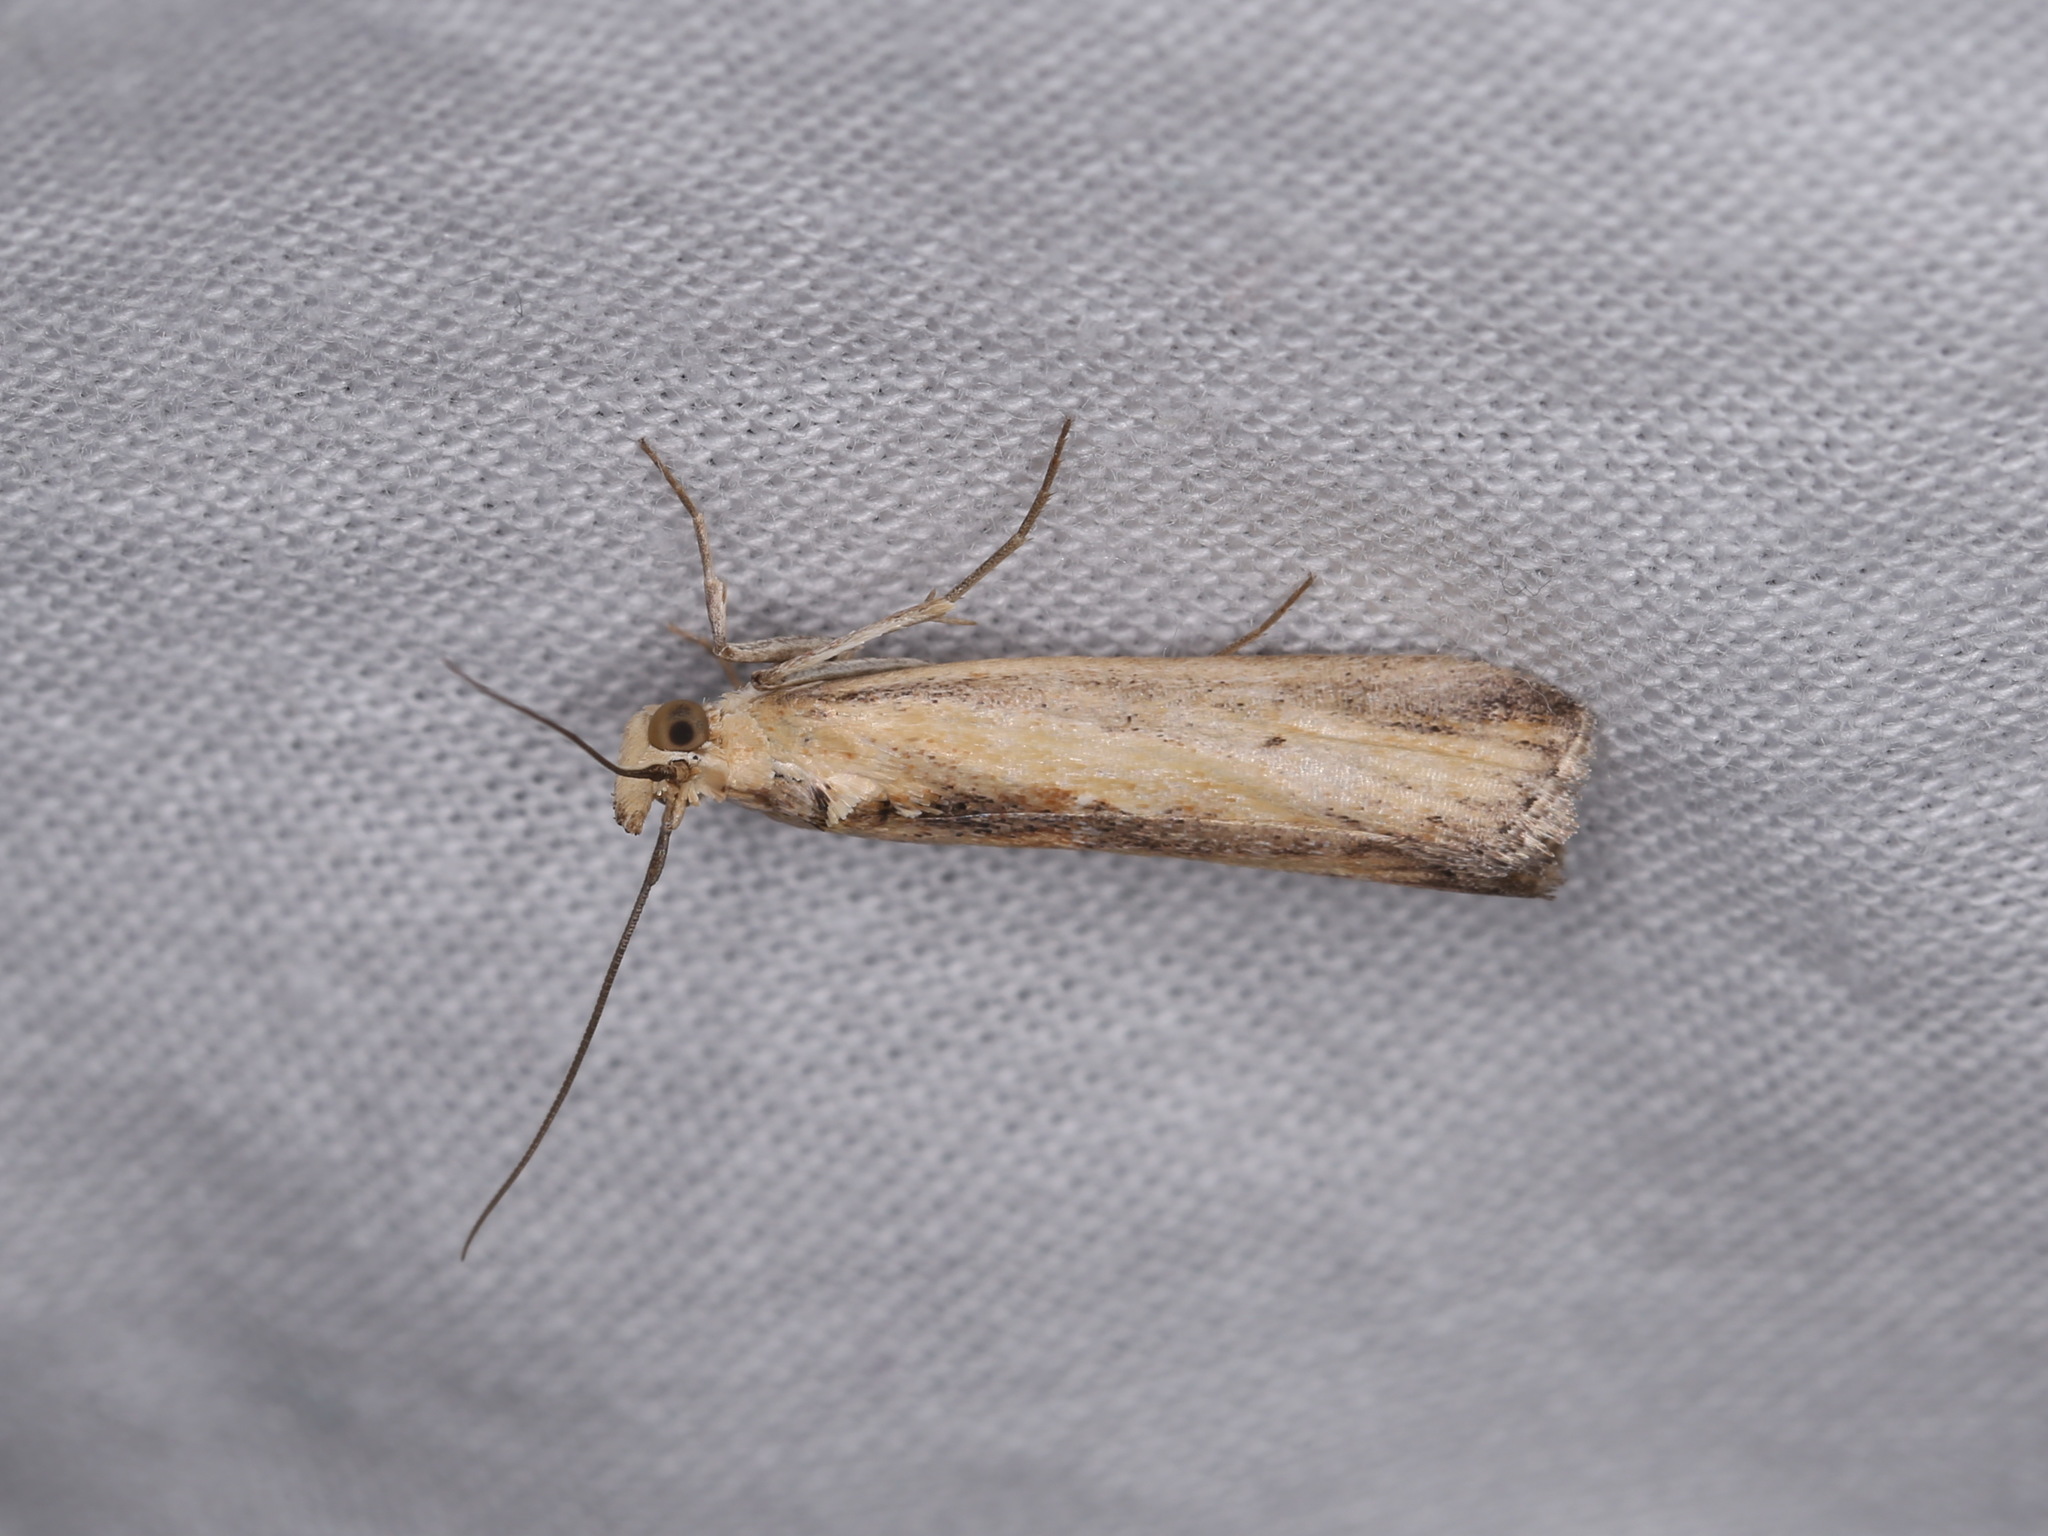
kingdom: Animalia
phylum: Arthropoda
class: Insecta
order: Lepidoptera
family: Pyralidae
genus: Morosaphycita
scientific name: Morosaphycita oculiferella
